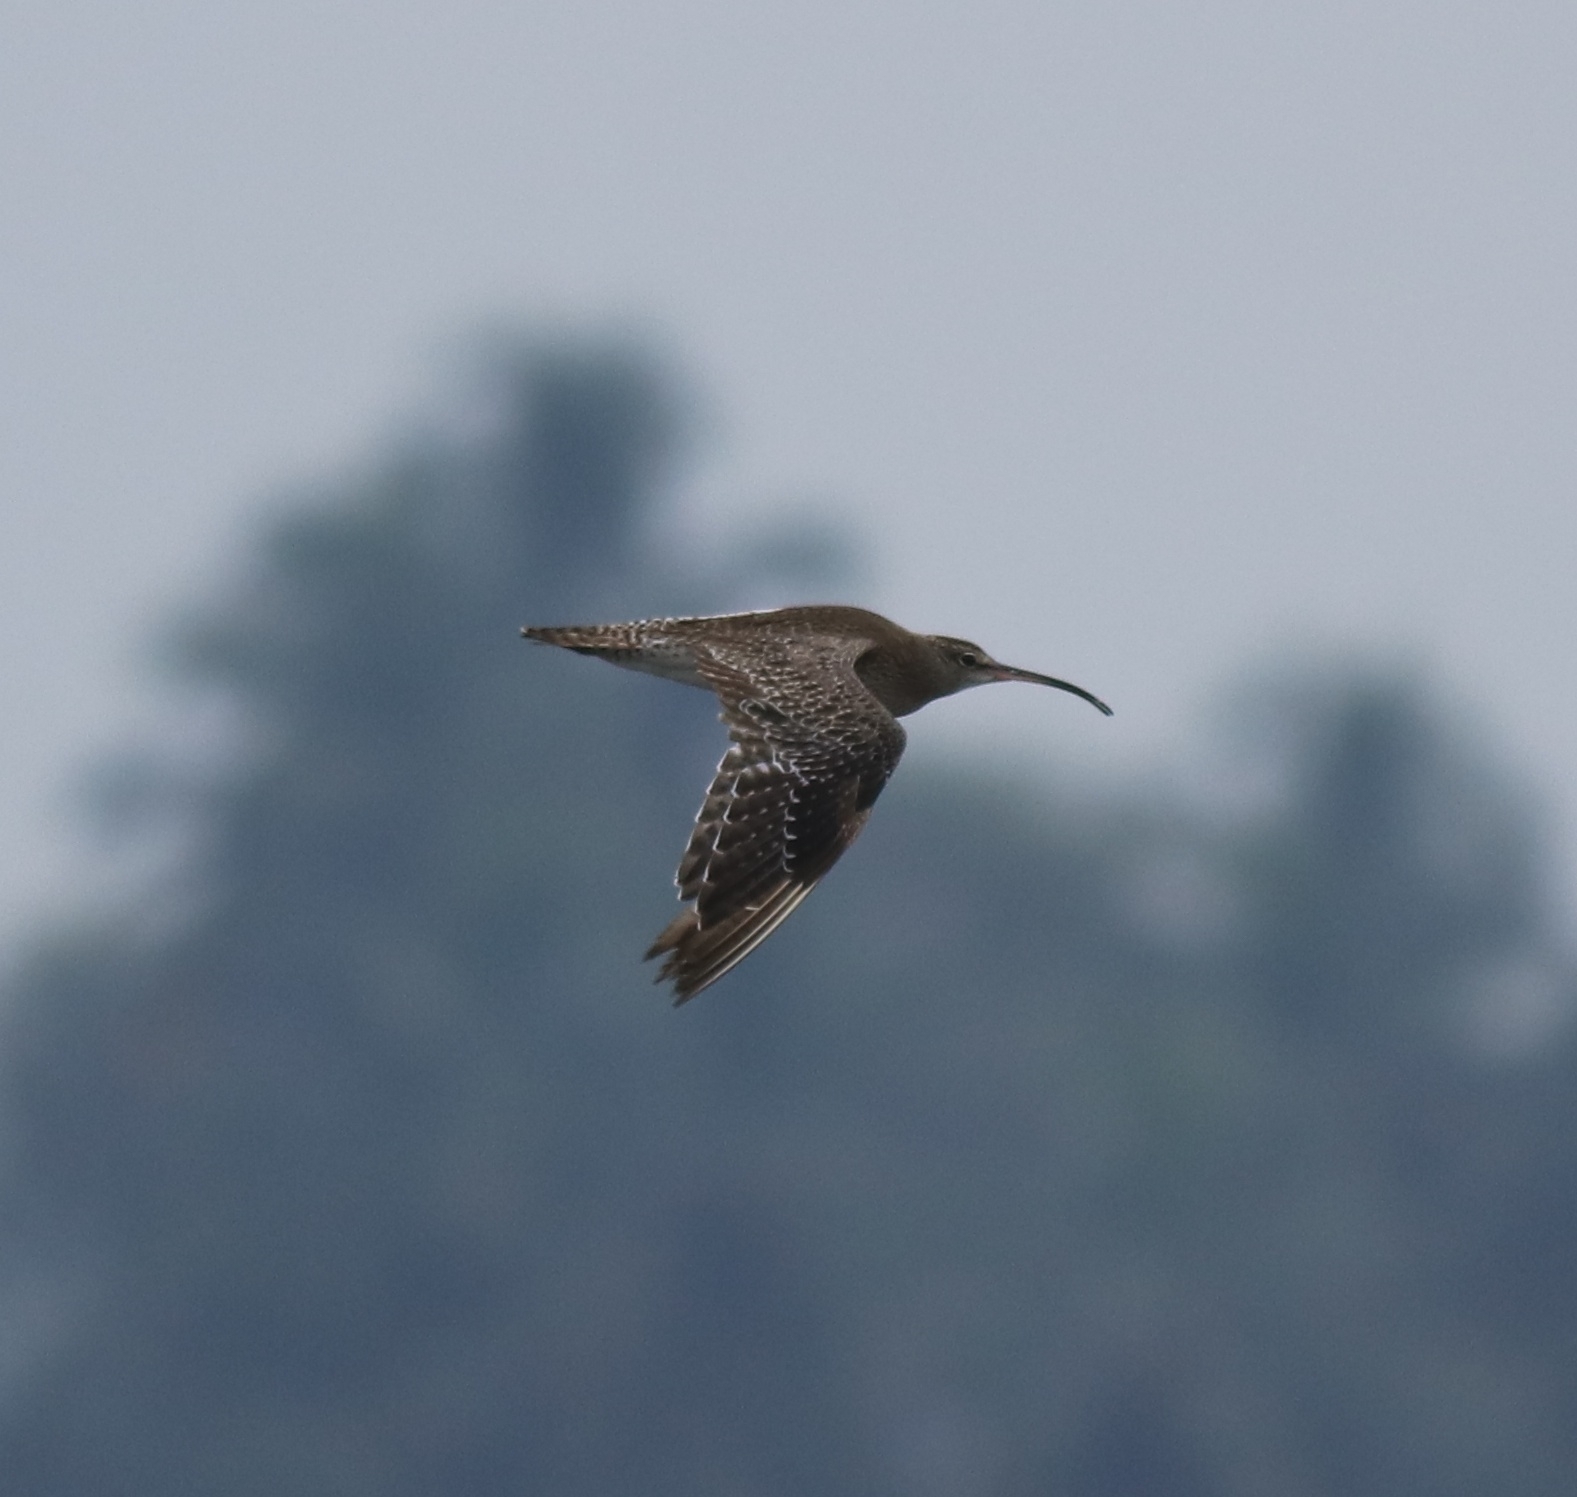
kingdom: Animalia
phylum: Chordata
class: Aves
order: Charadriiformes
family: Scolopacidae
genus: Numenius
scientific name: Numenius phaeopus
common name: Whimbrel
